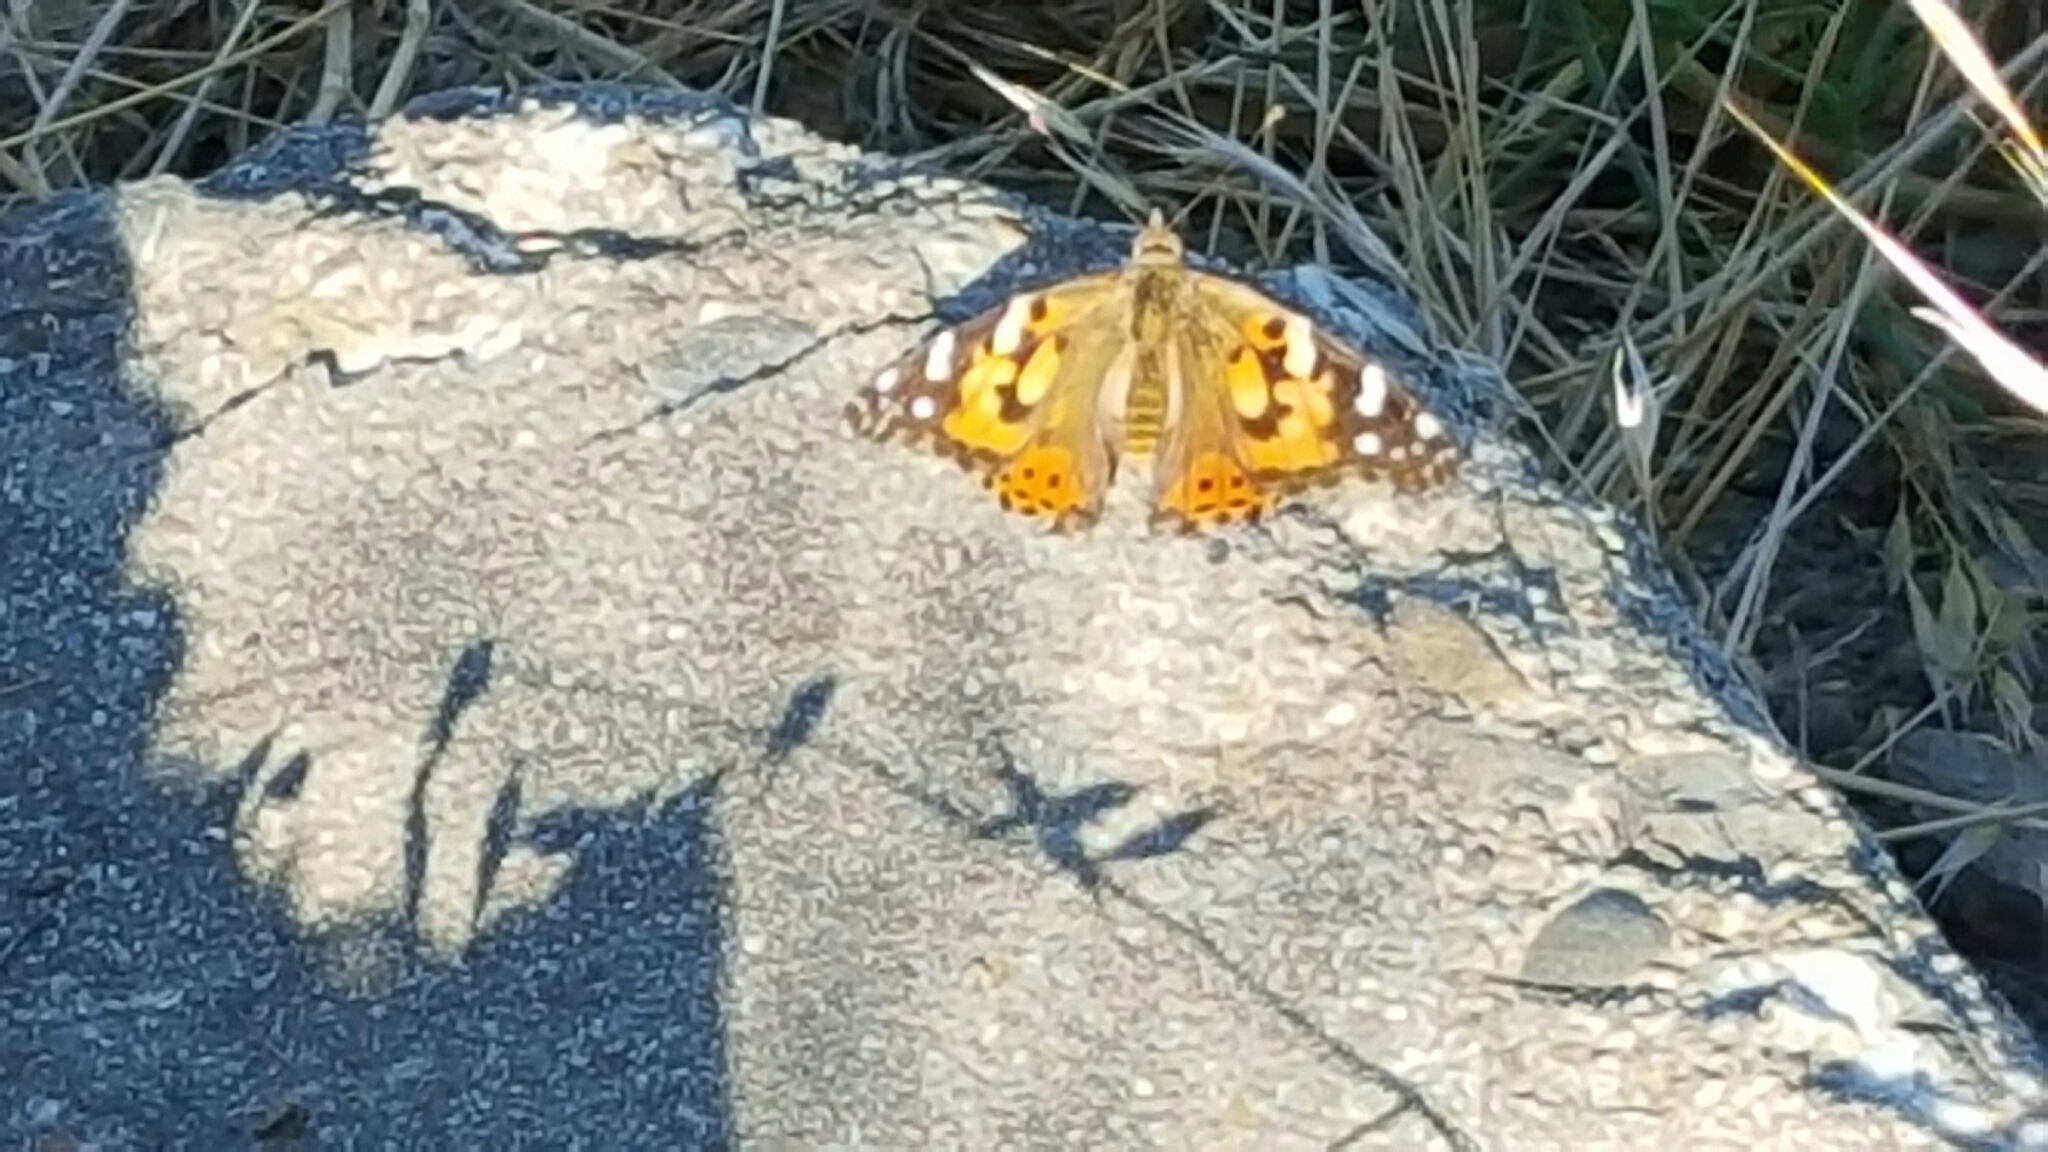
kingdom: Animalia
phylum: Arthropoda
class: Insecta
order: Lepidoptera
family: Nymphalidae
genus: Vanessa
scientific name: Vanessa cardui
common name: Painted lady
